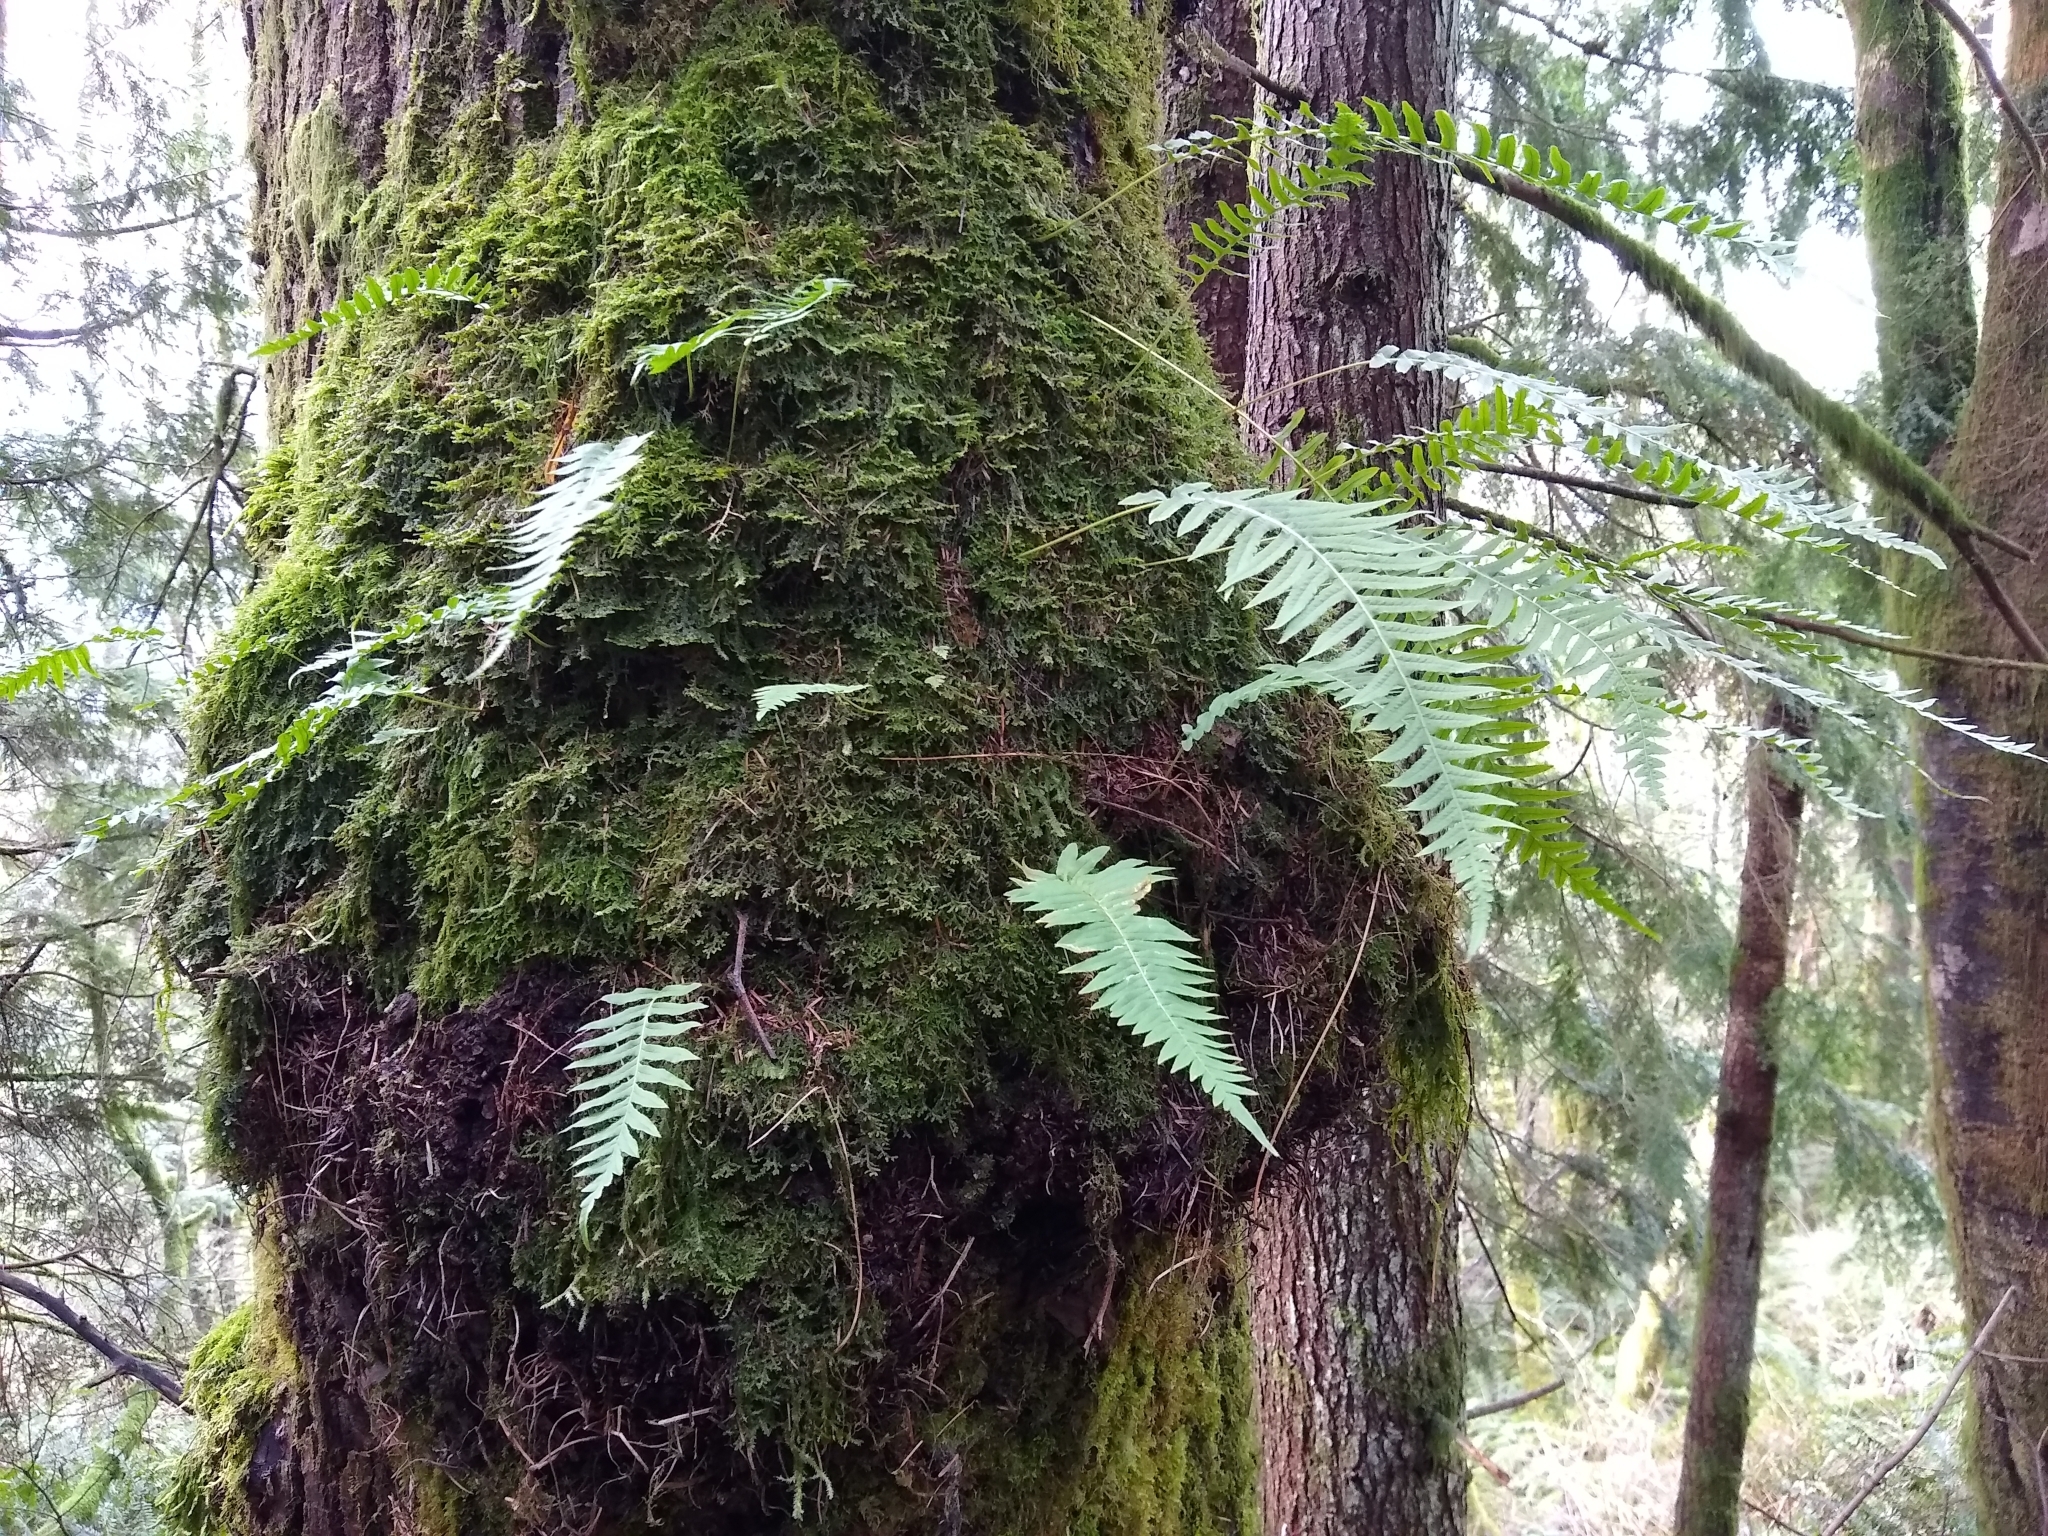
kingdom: Plantae
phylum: Tracheophyta
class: Polypodiopsida
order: Polypodiales
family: Polypodiaceae
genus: Polypodium
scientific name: Polypodium glycyrrhiza
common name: Licorice fern
